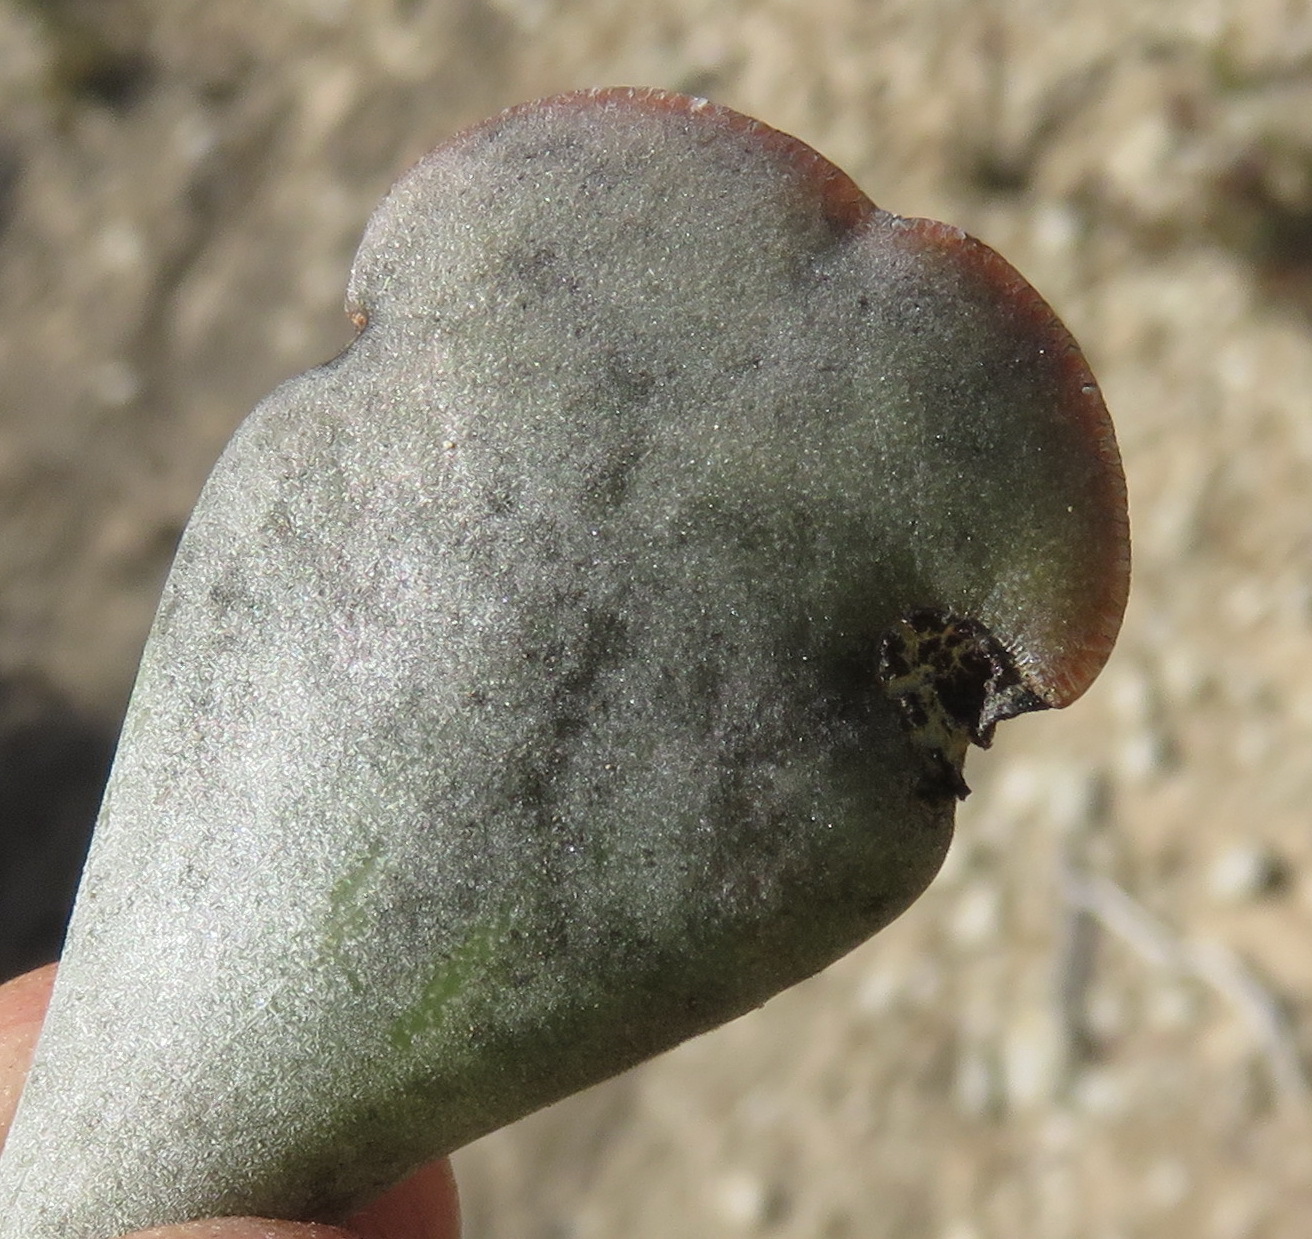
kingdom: Plantae
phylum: Tracheophyta
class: Magnoliopsida
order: Saxifragales
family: Crassulaceae
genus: Adromischus
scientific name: Adromischus triflorus
